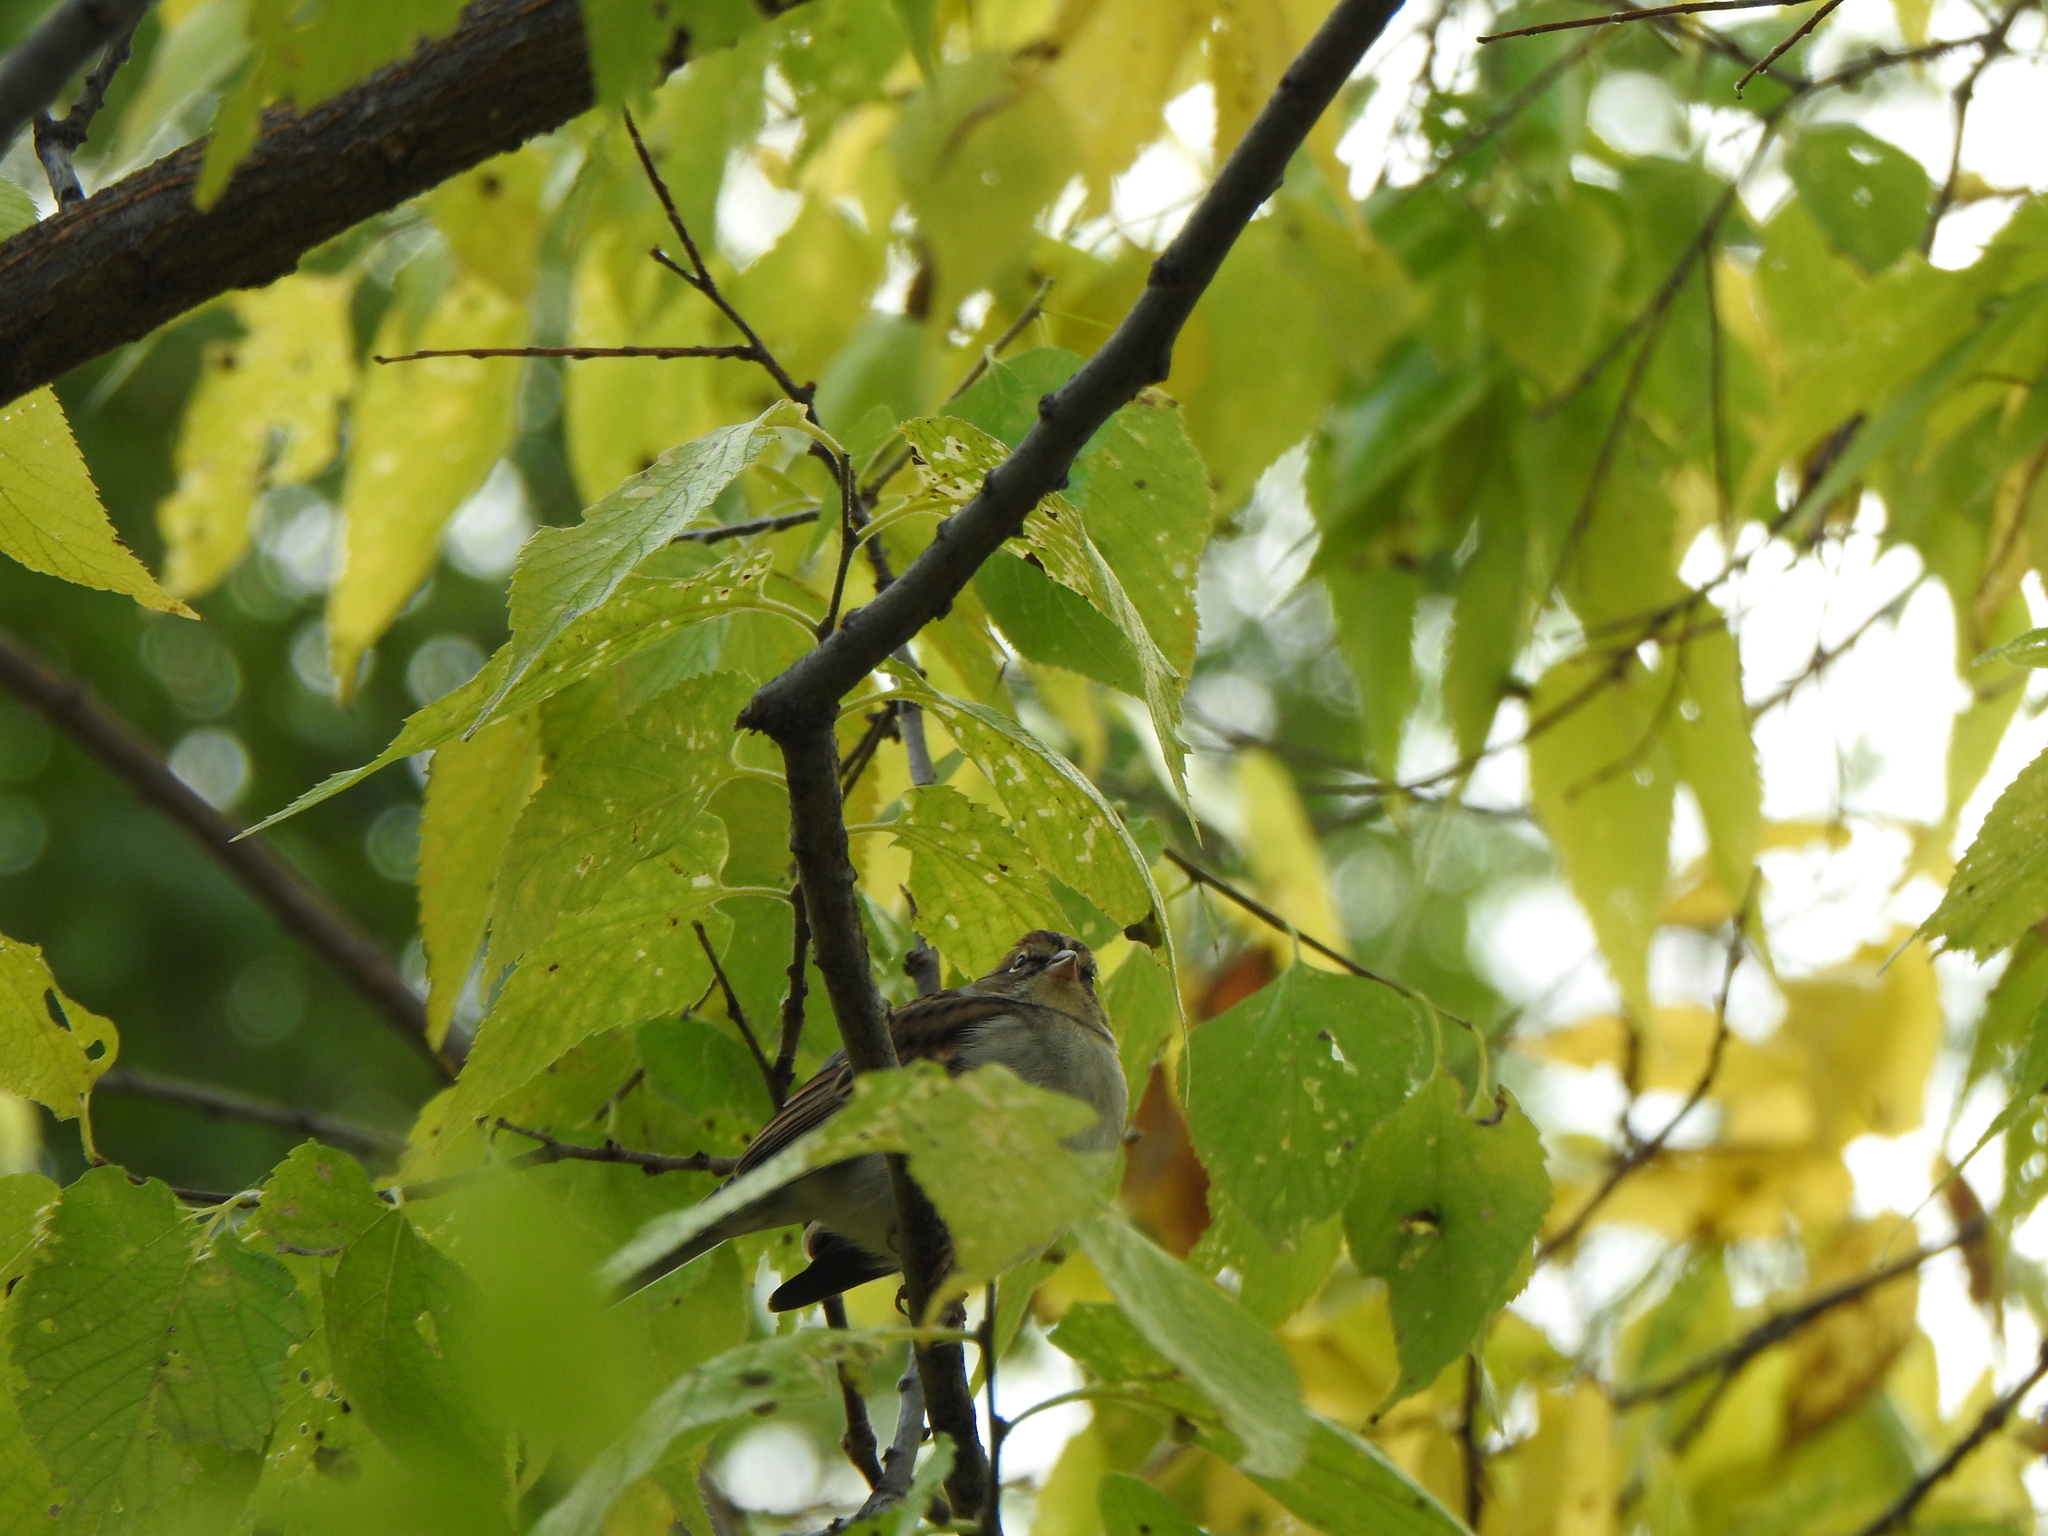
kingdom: Animalia
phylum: Chordata
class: Aves
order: Passeriformes
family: Passerellidae
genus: Spizella
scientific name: Spizella passerina
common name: Chipping sparrow
